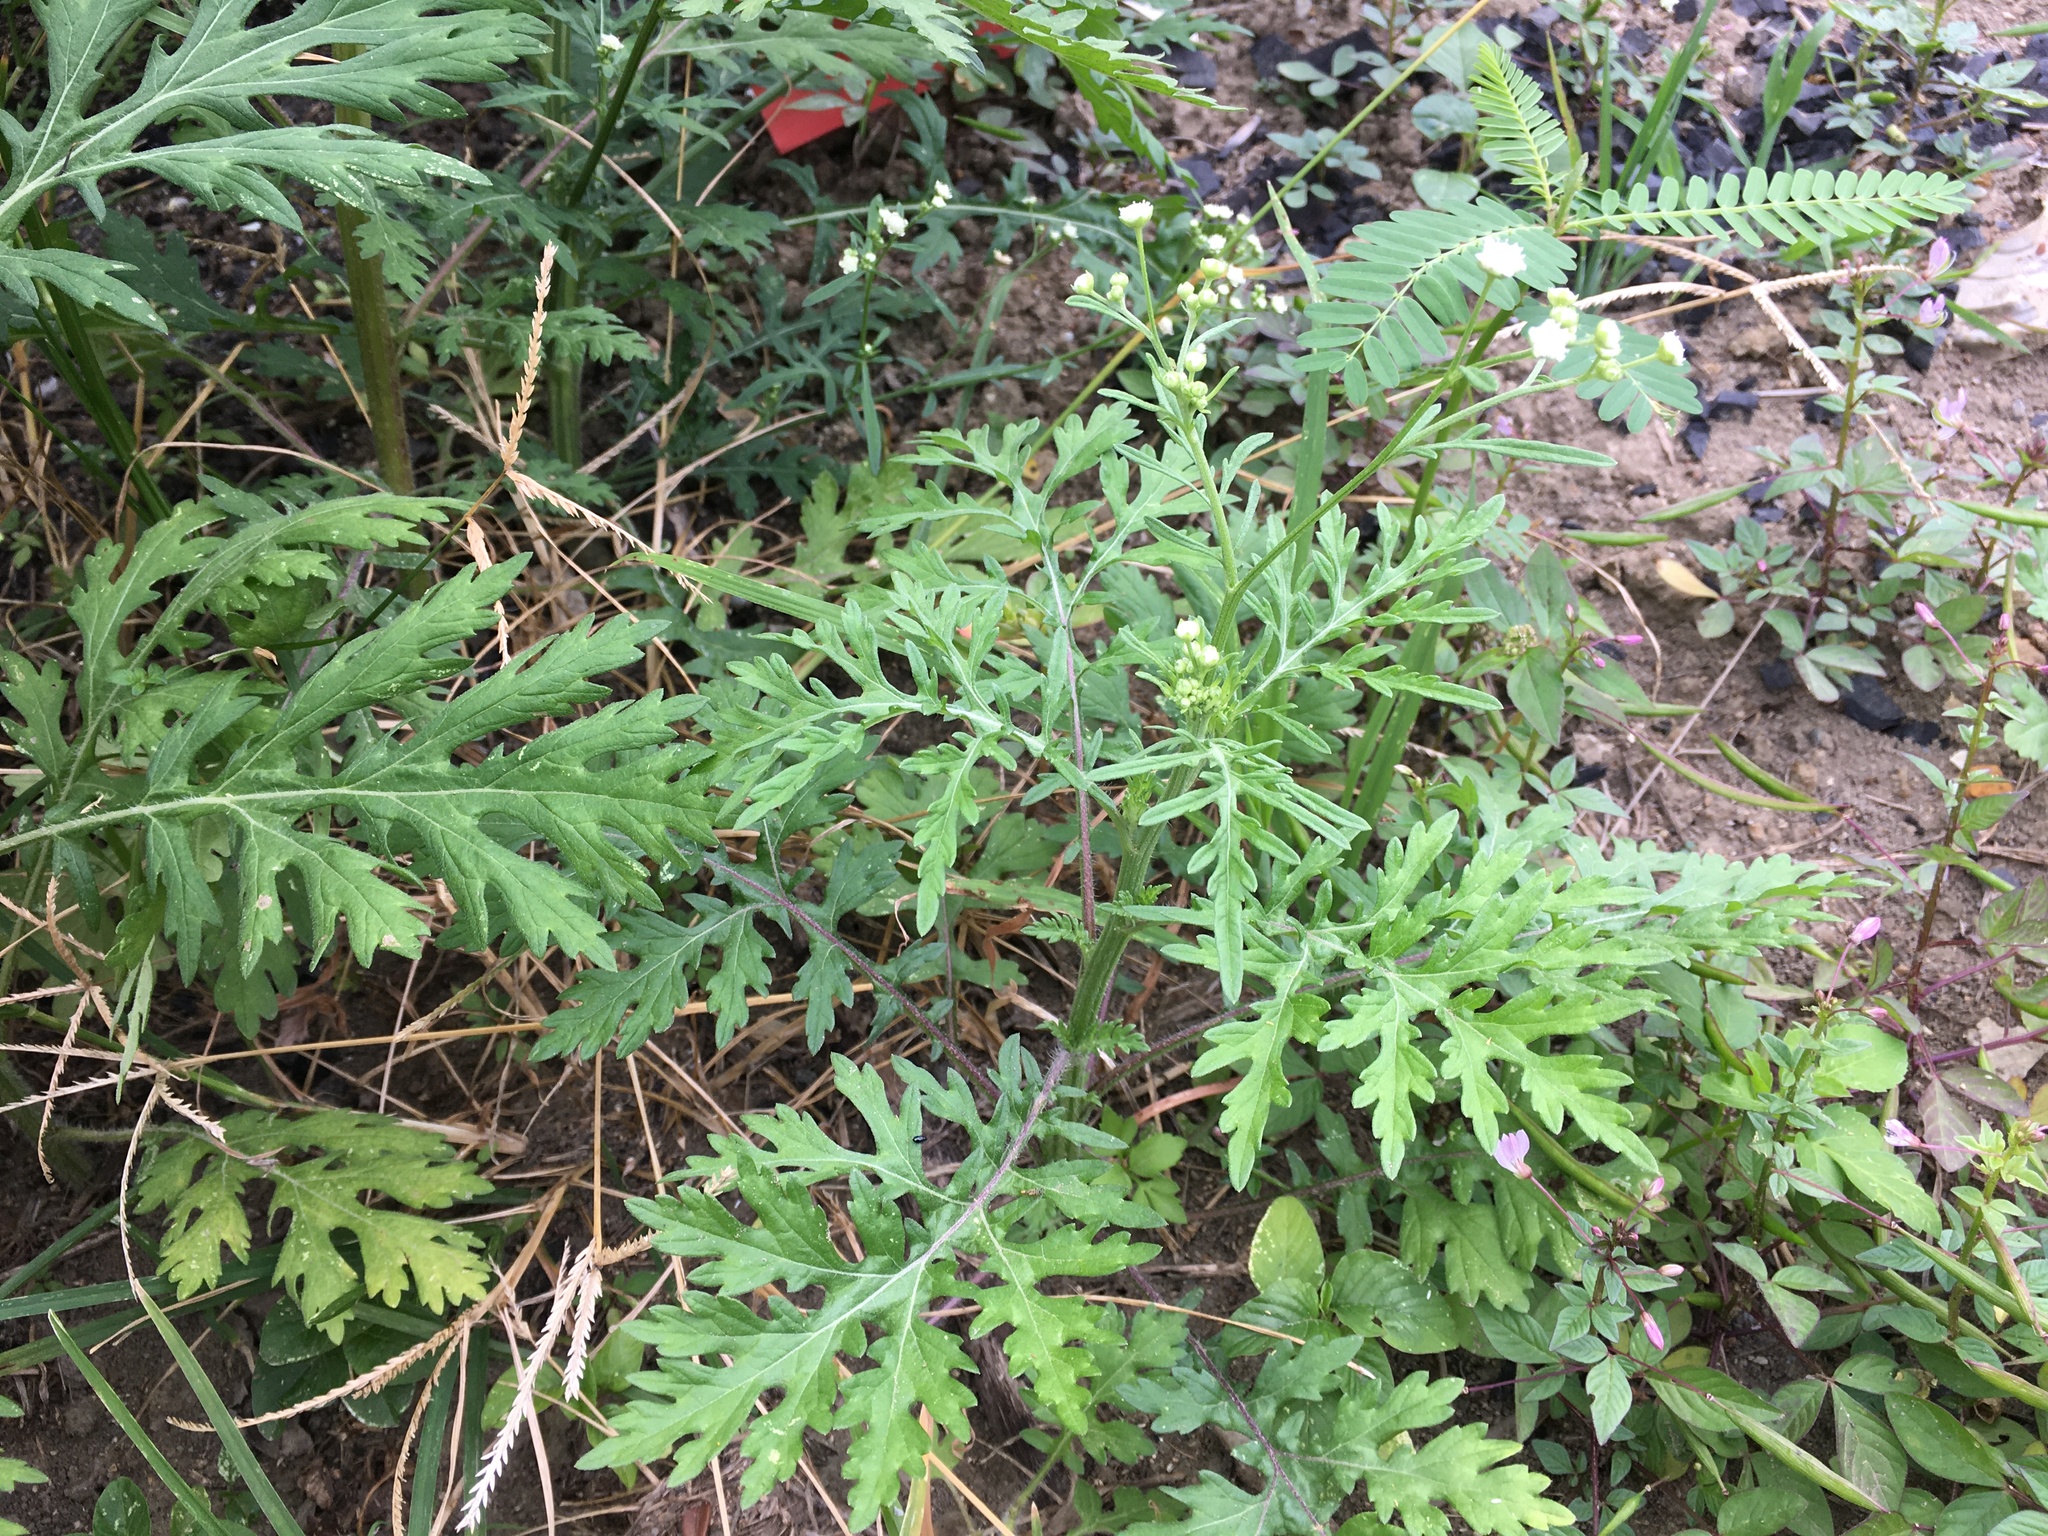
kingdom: Plantae
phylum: Tracheophyta
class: Magnoliopsida
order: Asterales
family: Asteraceae
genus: Parthenium
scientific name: Parthenium hysterophorus
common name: Santa maria feverfew
